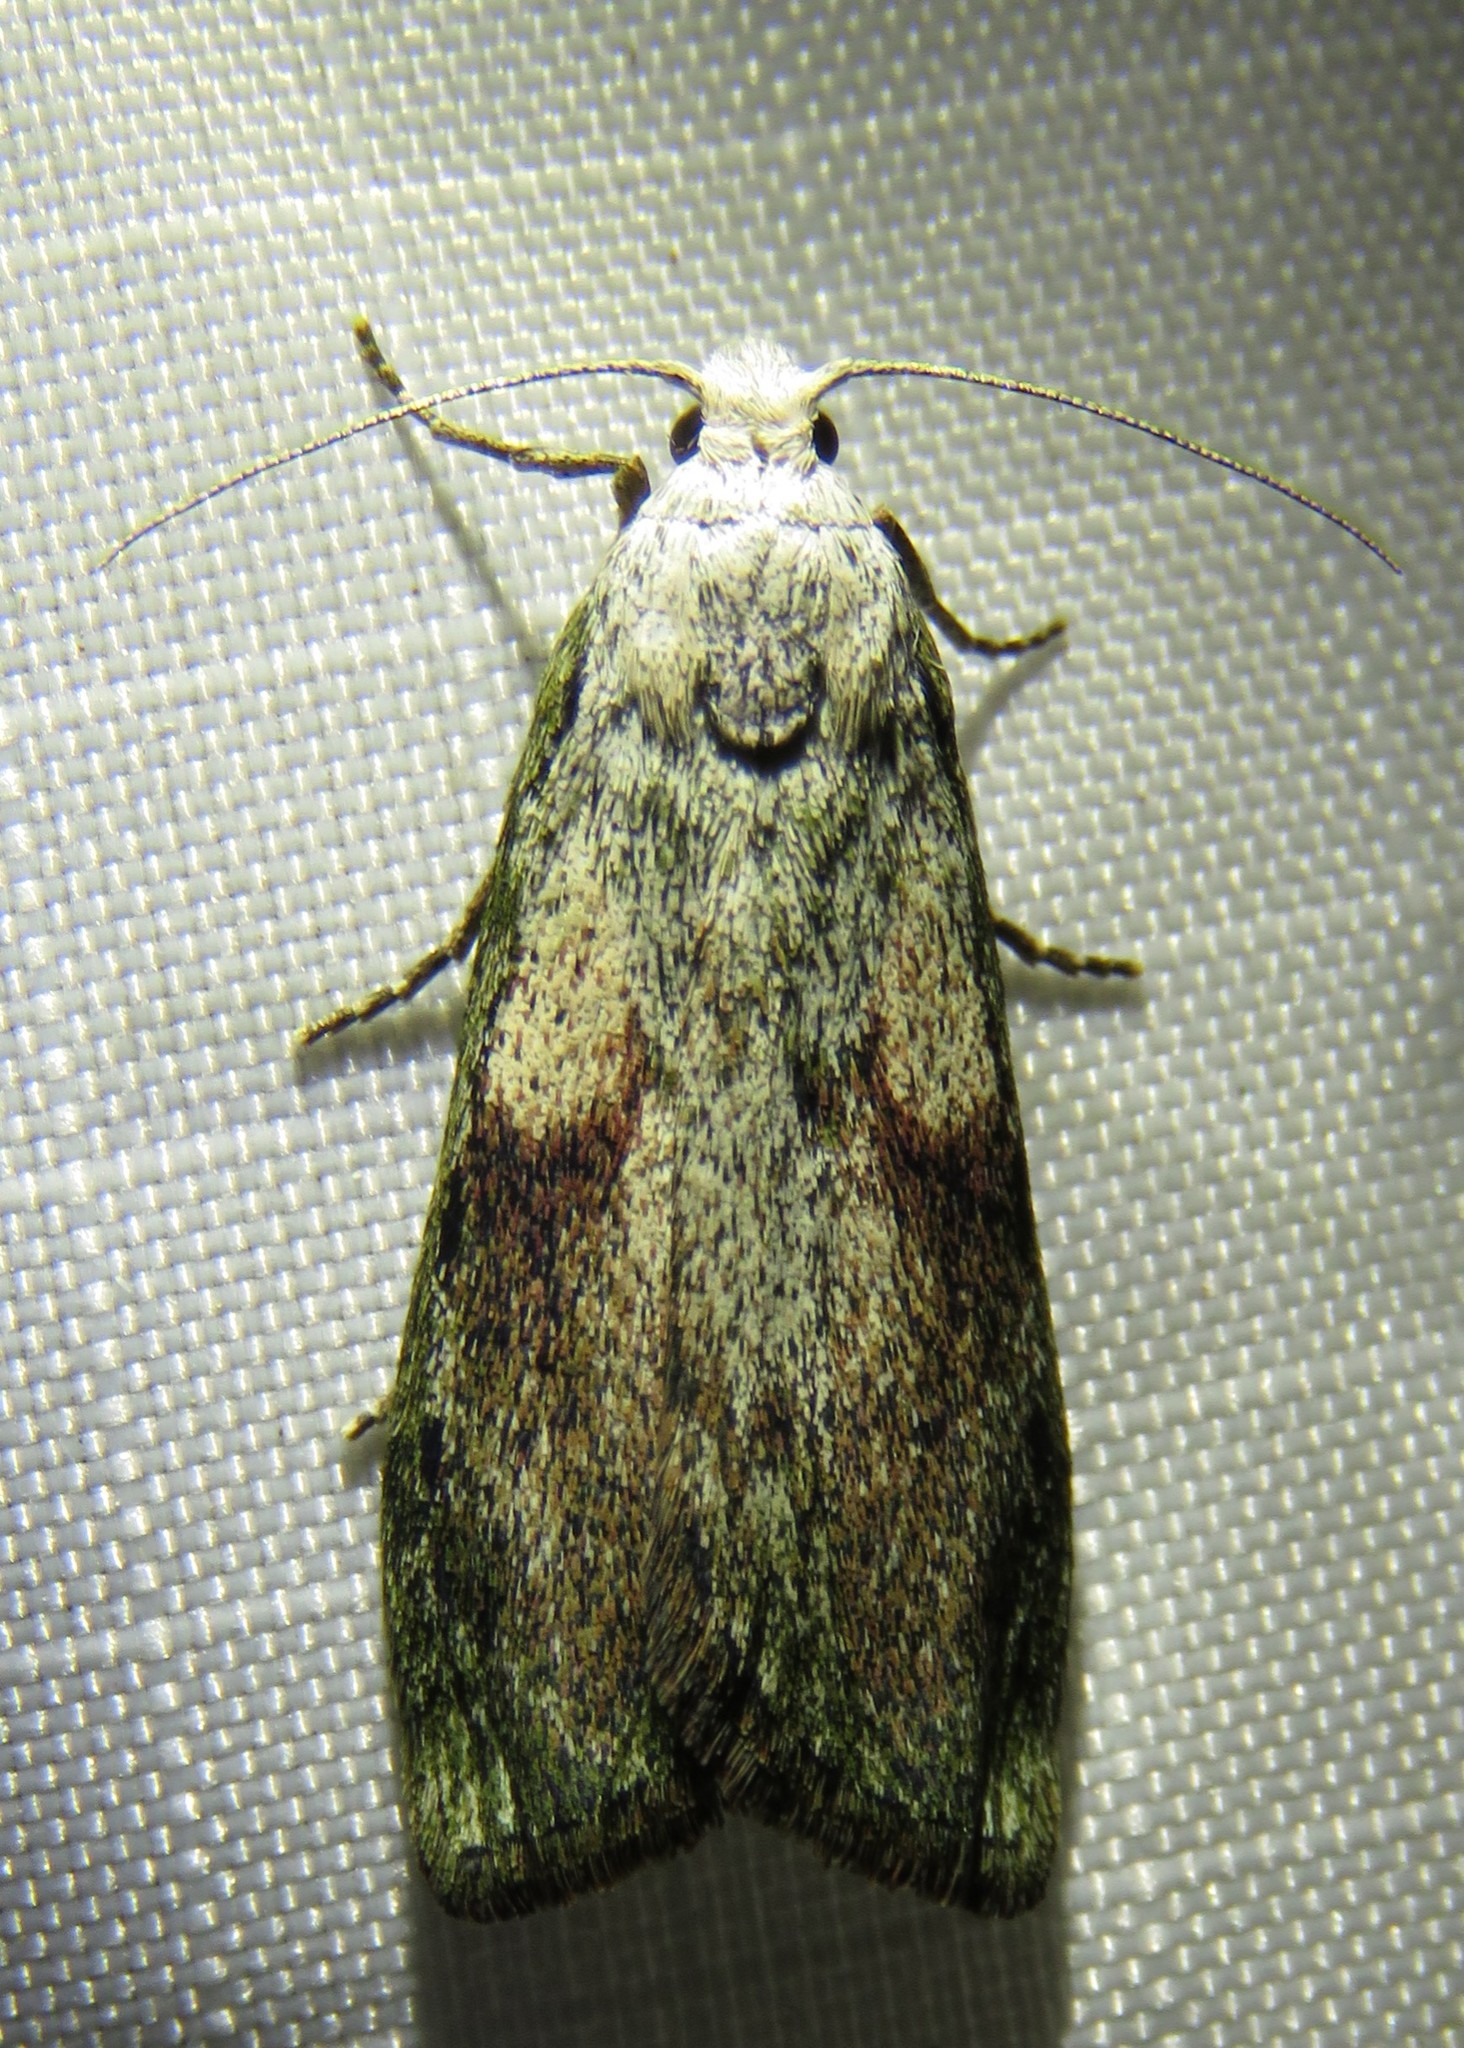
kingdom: Animalia
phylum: Arthropoda
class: Insecta
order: Lepidoptera
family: Pyralidae
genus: Aphomia
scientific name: Aphomia sociella
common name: Bee moth
